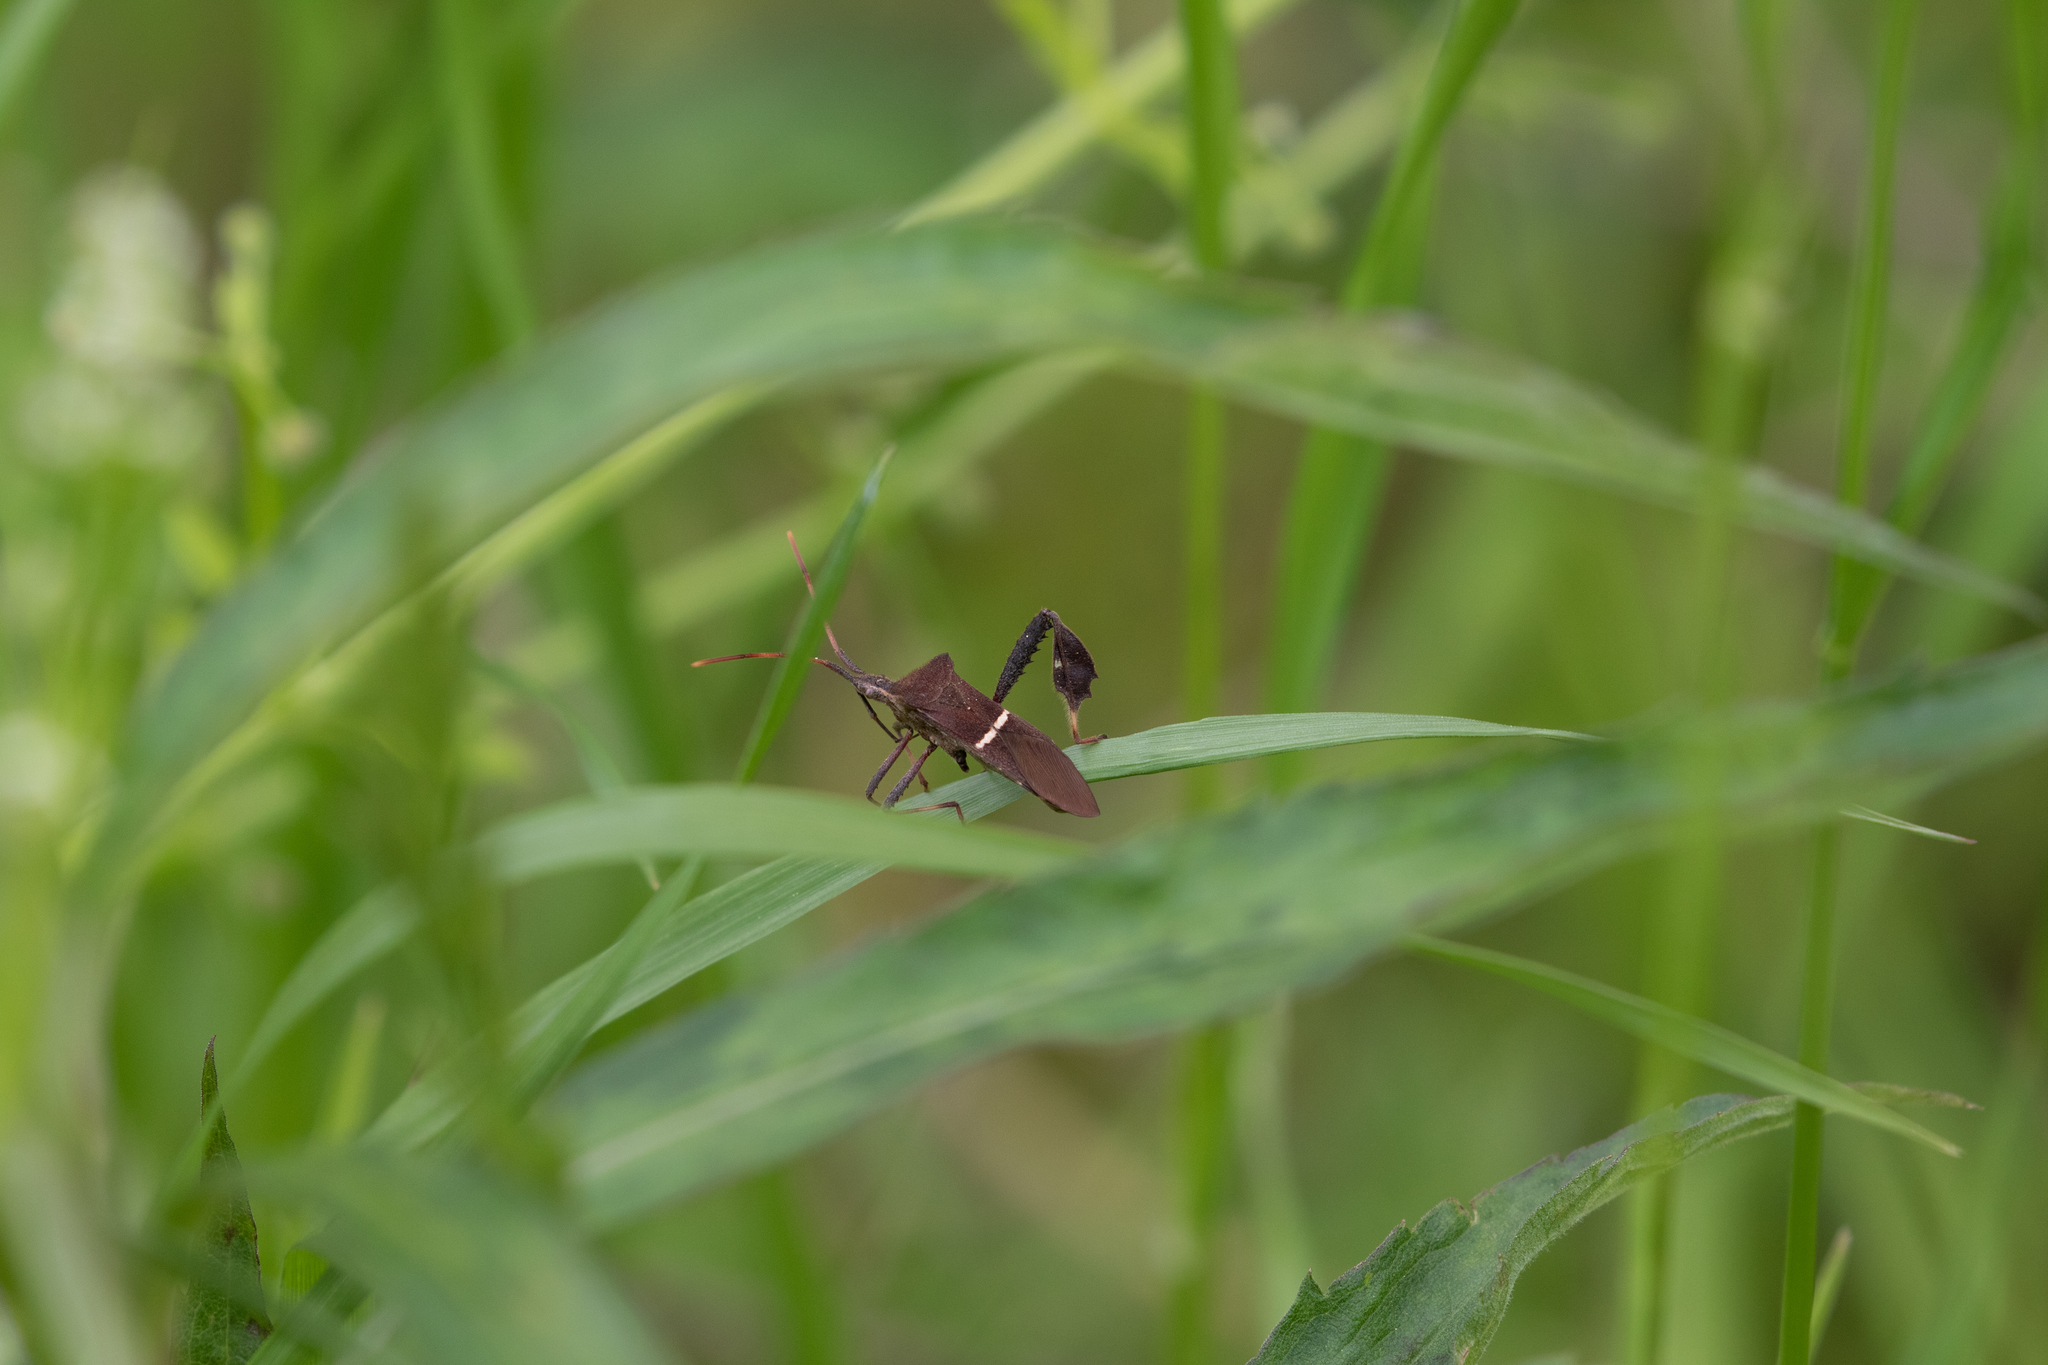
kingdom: Animalia
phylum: Arthropoda
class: Insecta
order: Hemiptera
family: Coreidae
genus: Leptoglossus
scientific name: Leptoglossus phyllopus
